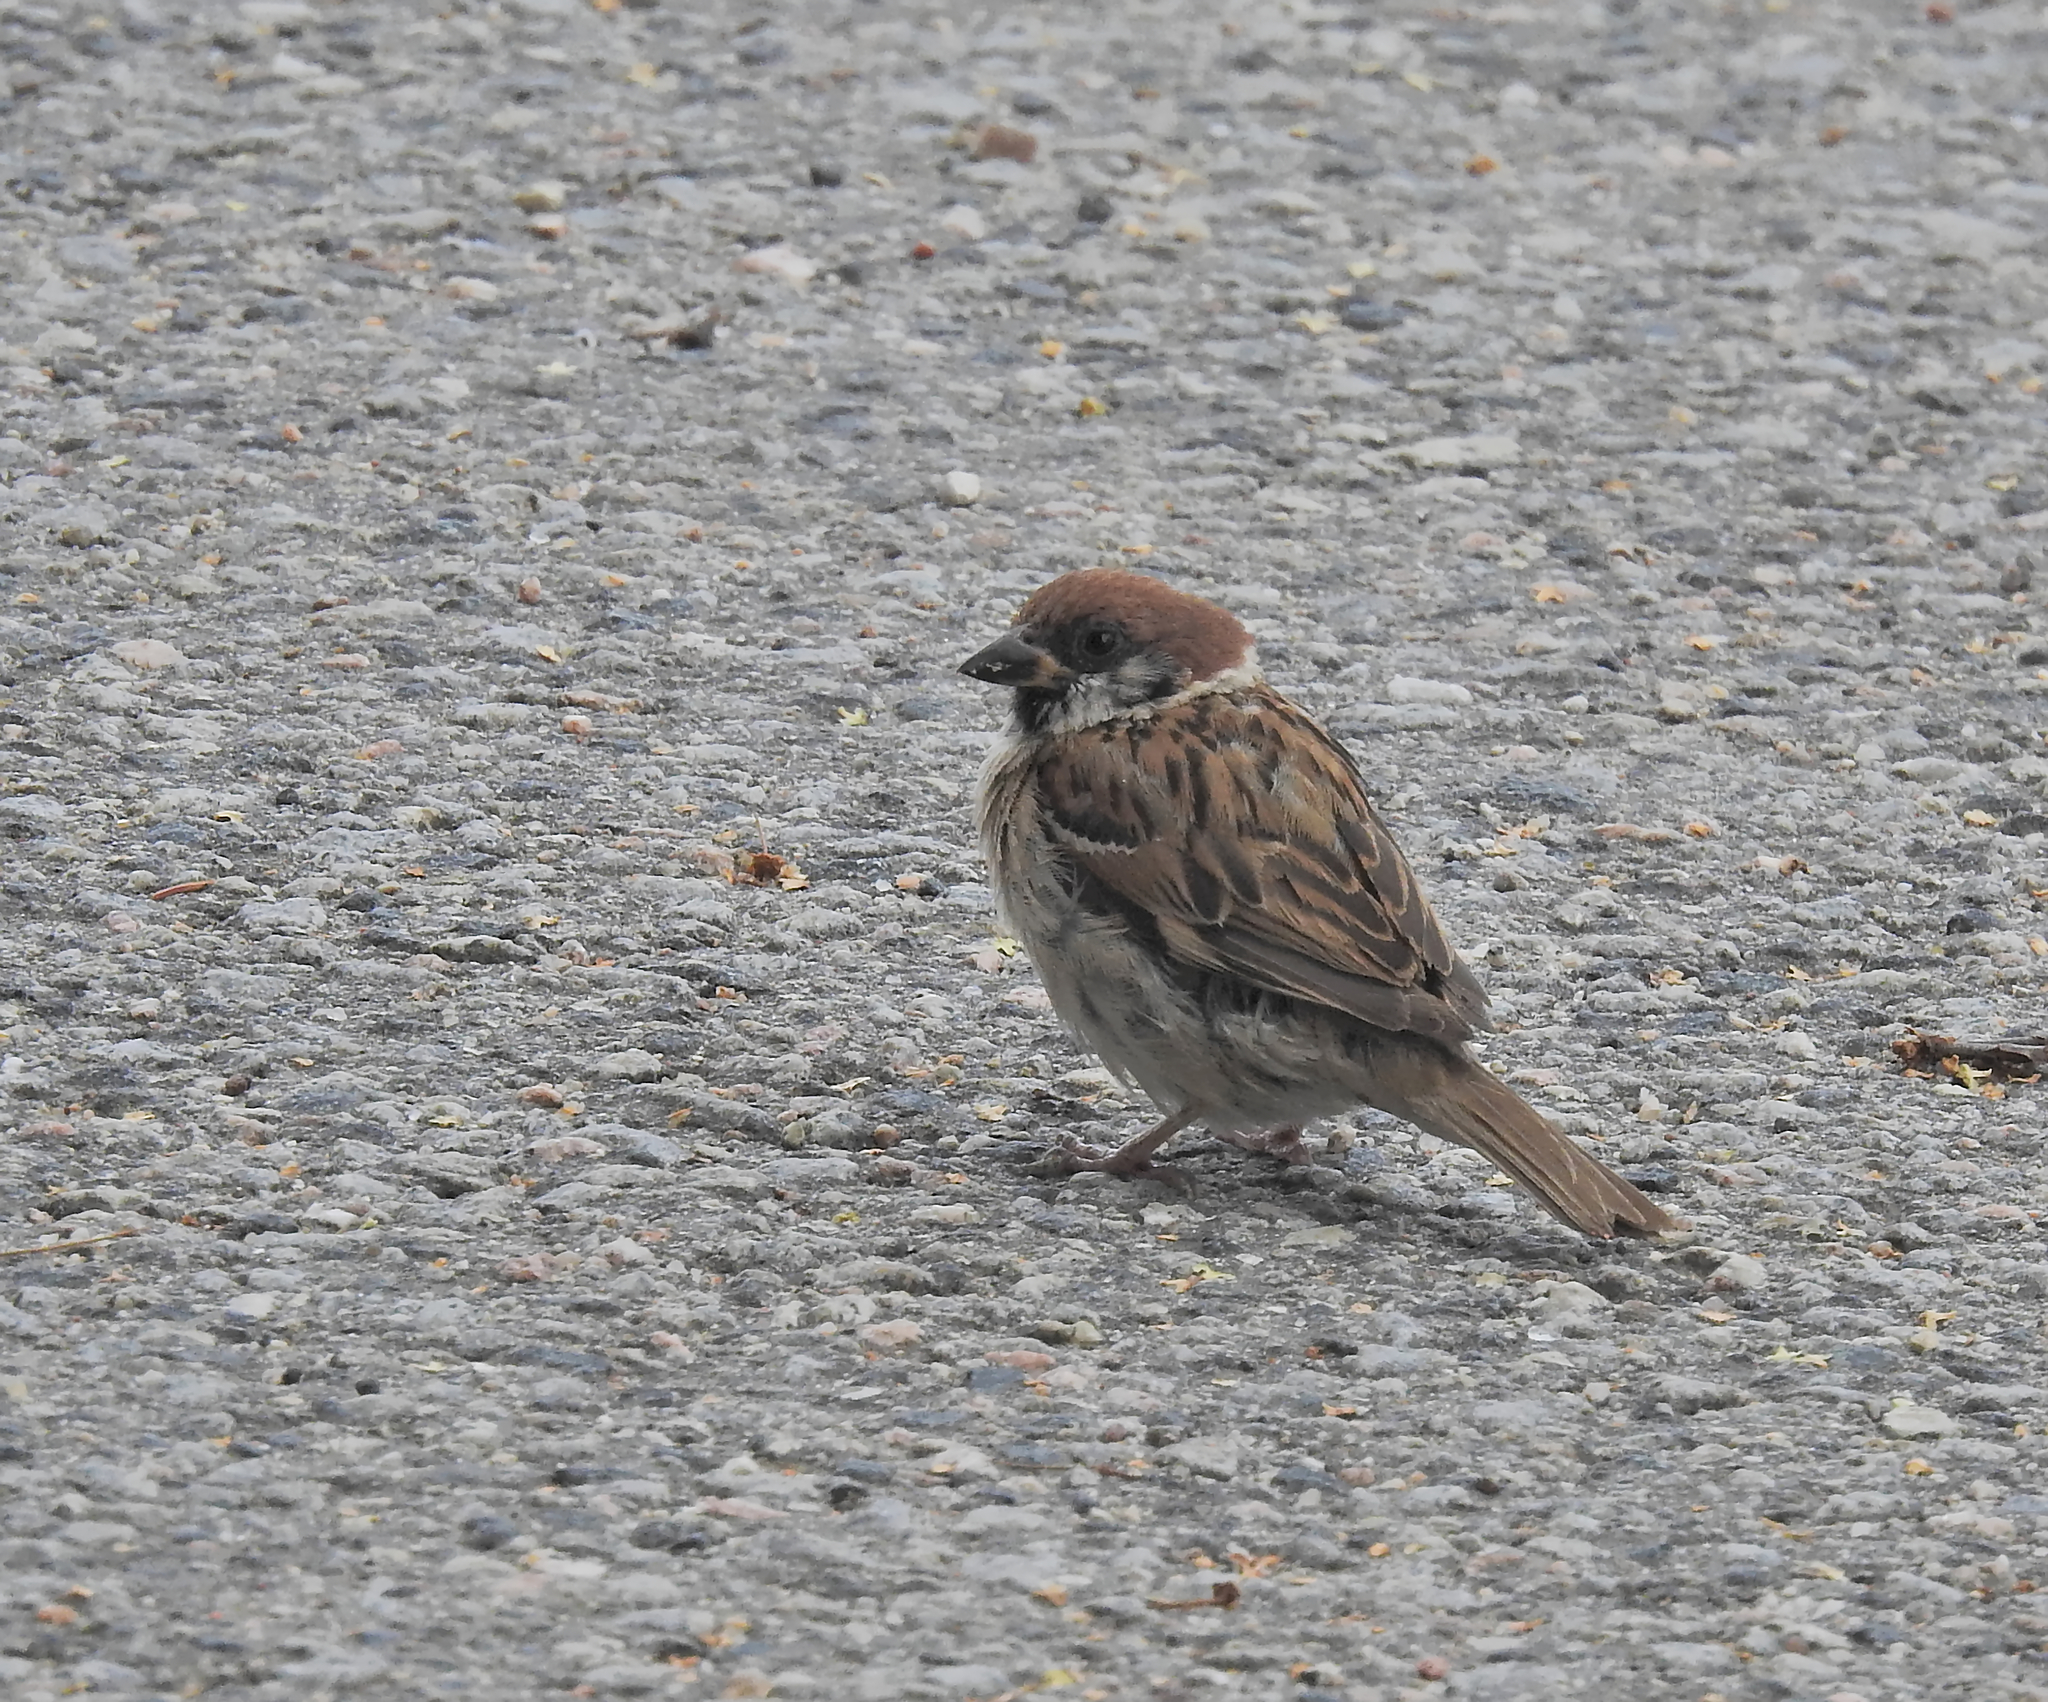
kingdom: Animalia
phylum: Chordata
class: Aves
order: Passeriformes
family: Passeridae
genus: Passer
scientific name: Passer montanus
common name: Eurasian tree sparrow
